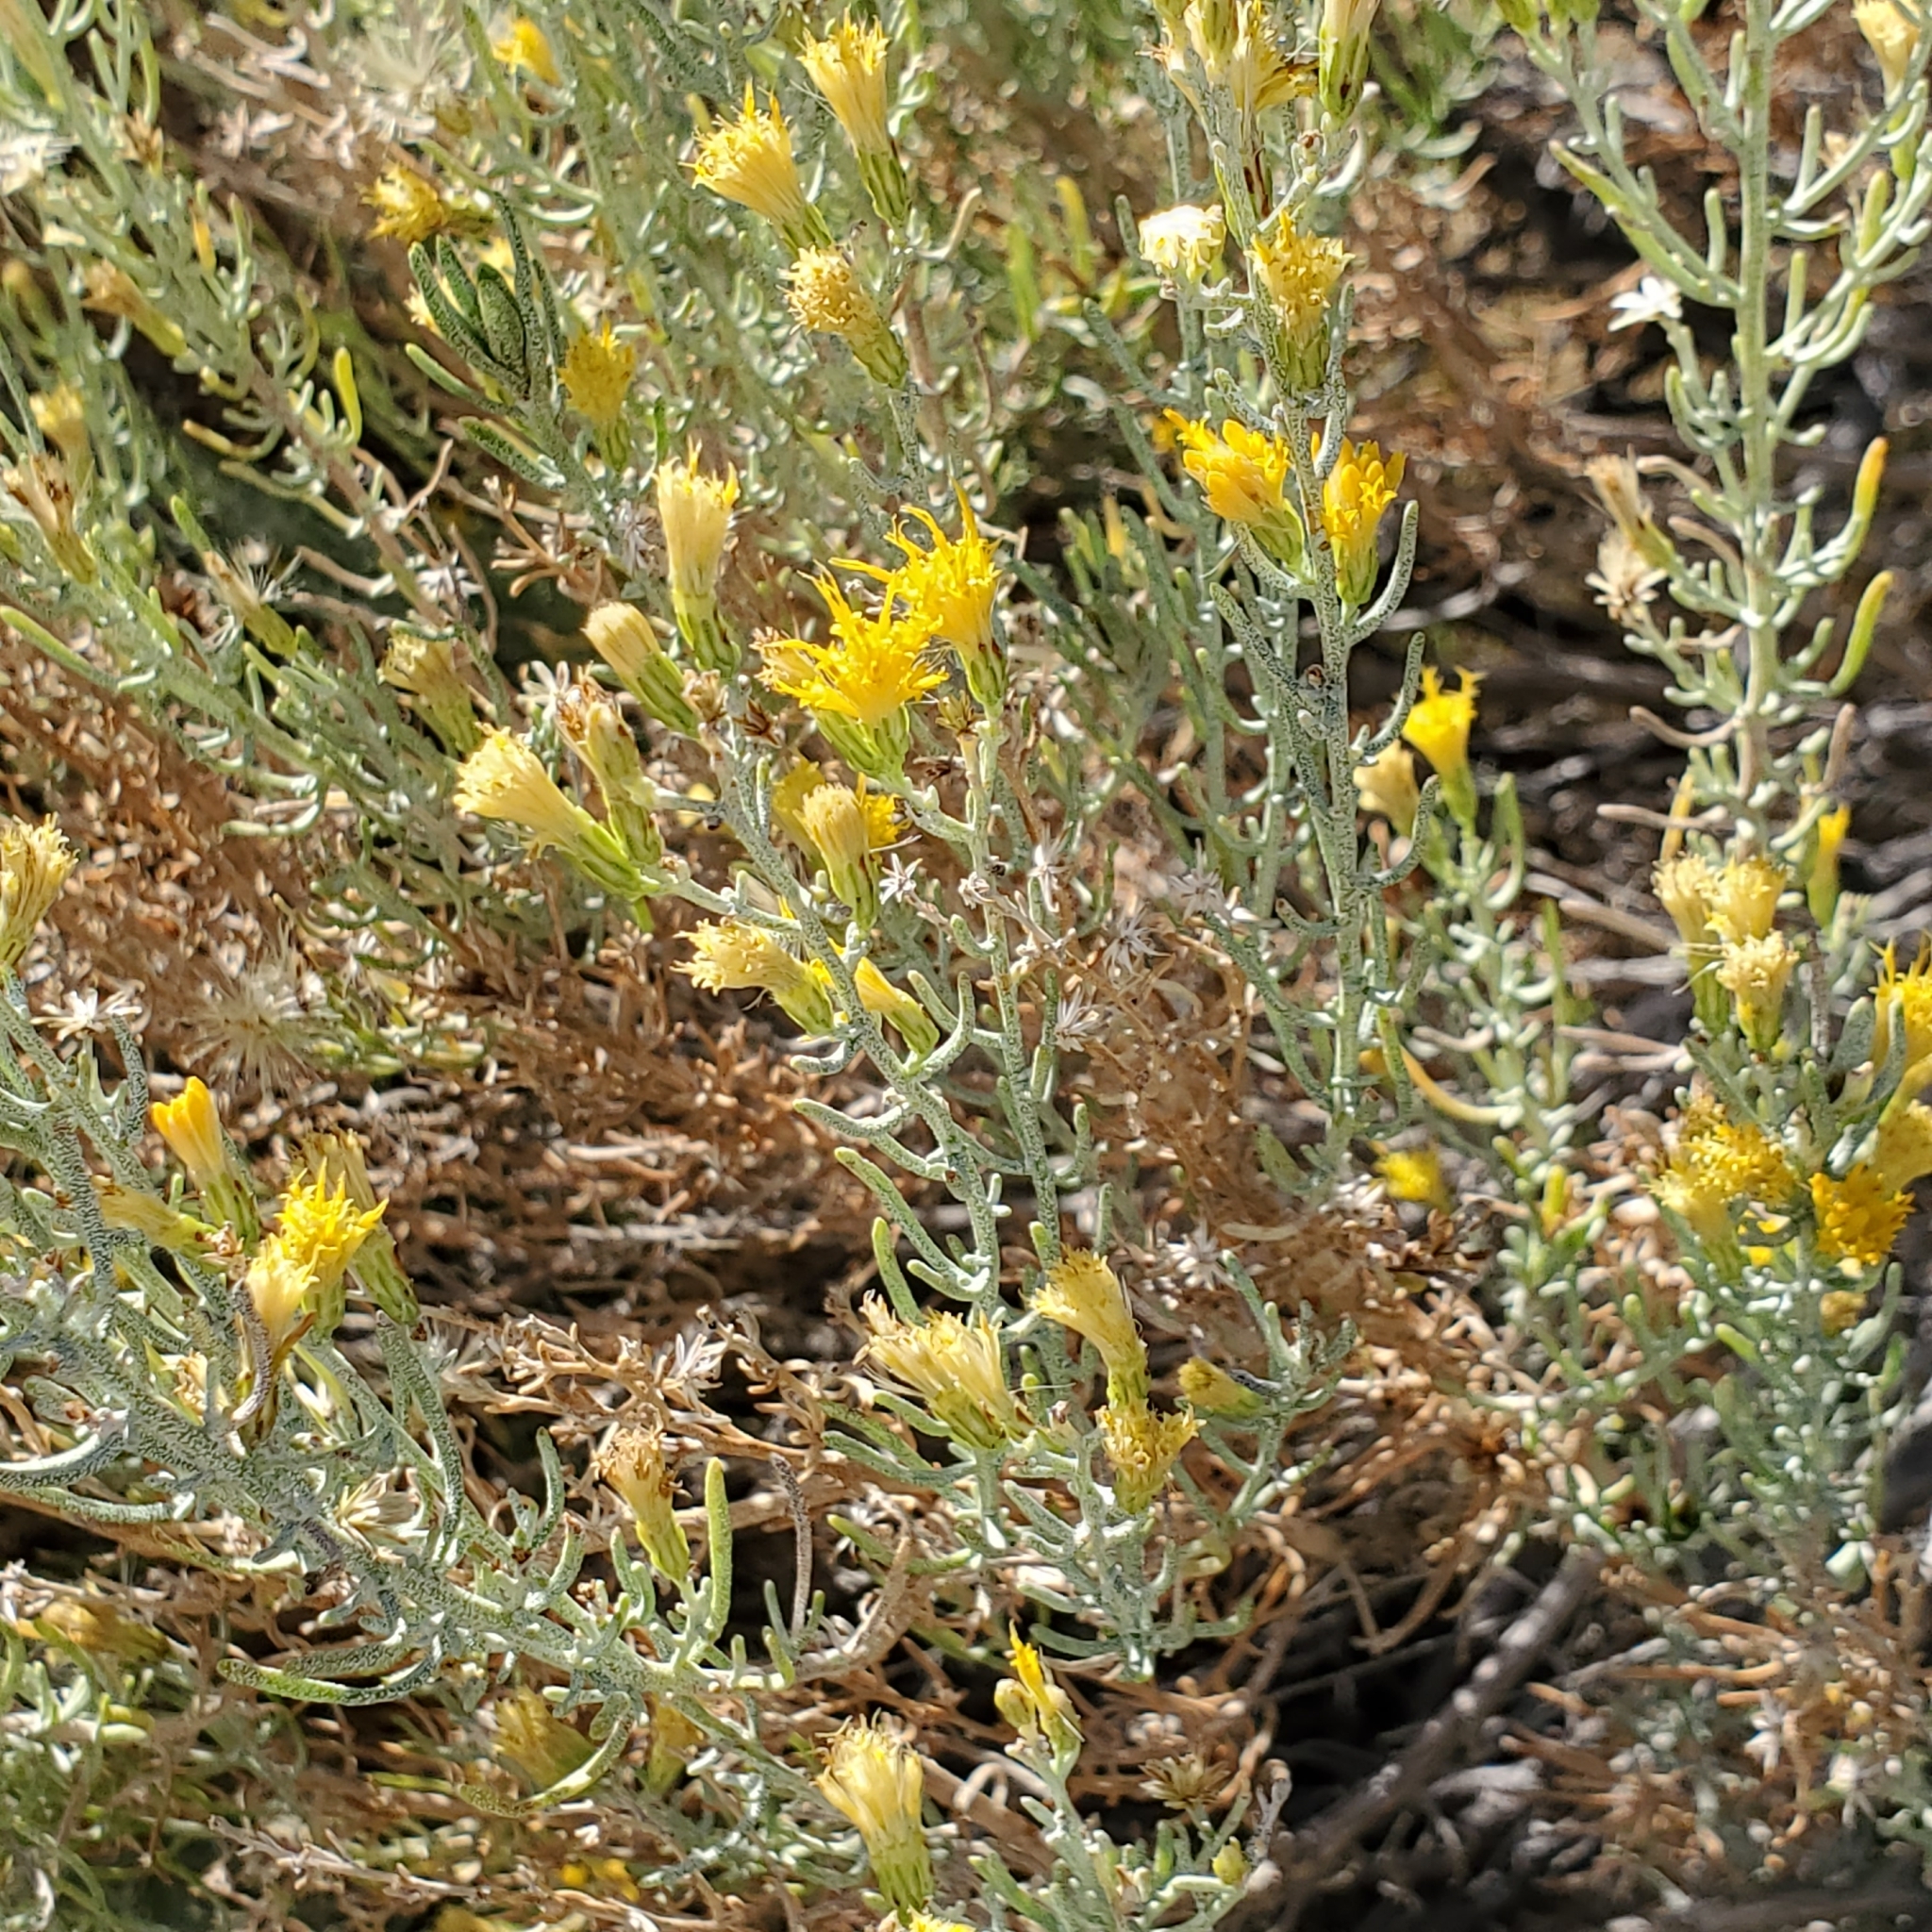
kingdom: Plantae
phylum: Tracheophyta
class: Magnoliopsida
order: Asterales
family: Asteraceae
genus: Ericameria
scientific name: Ericameria brachylepis
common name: Boundary goldenbush
